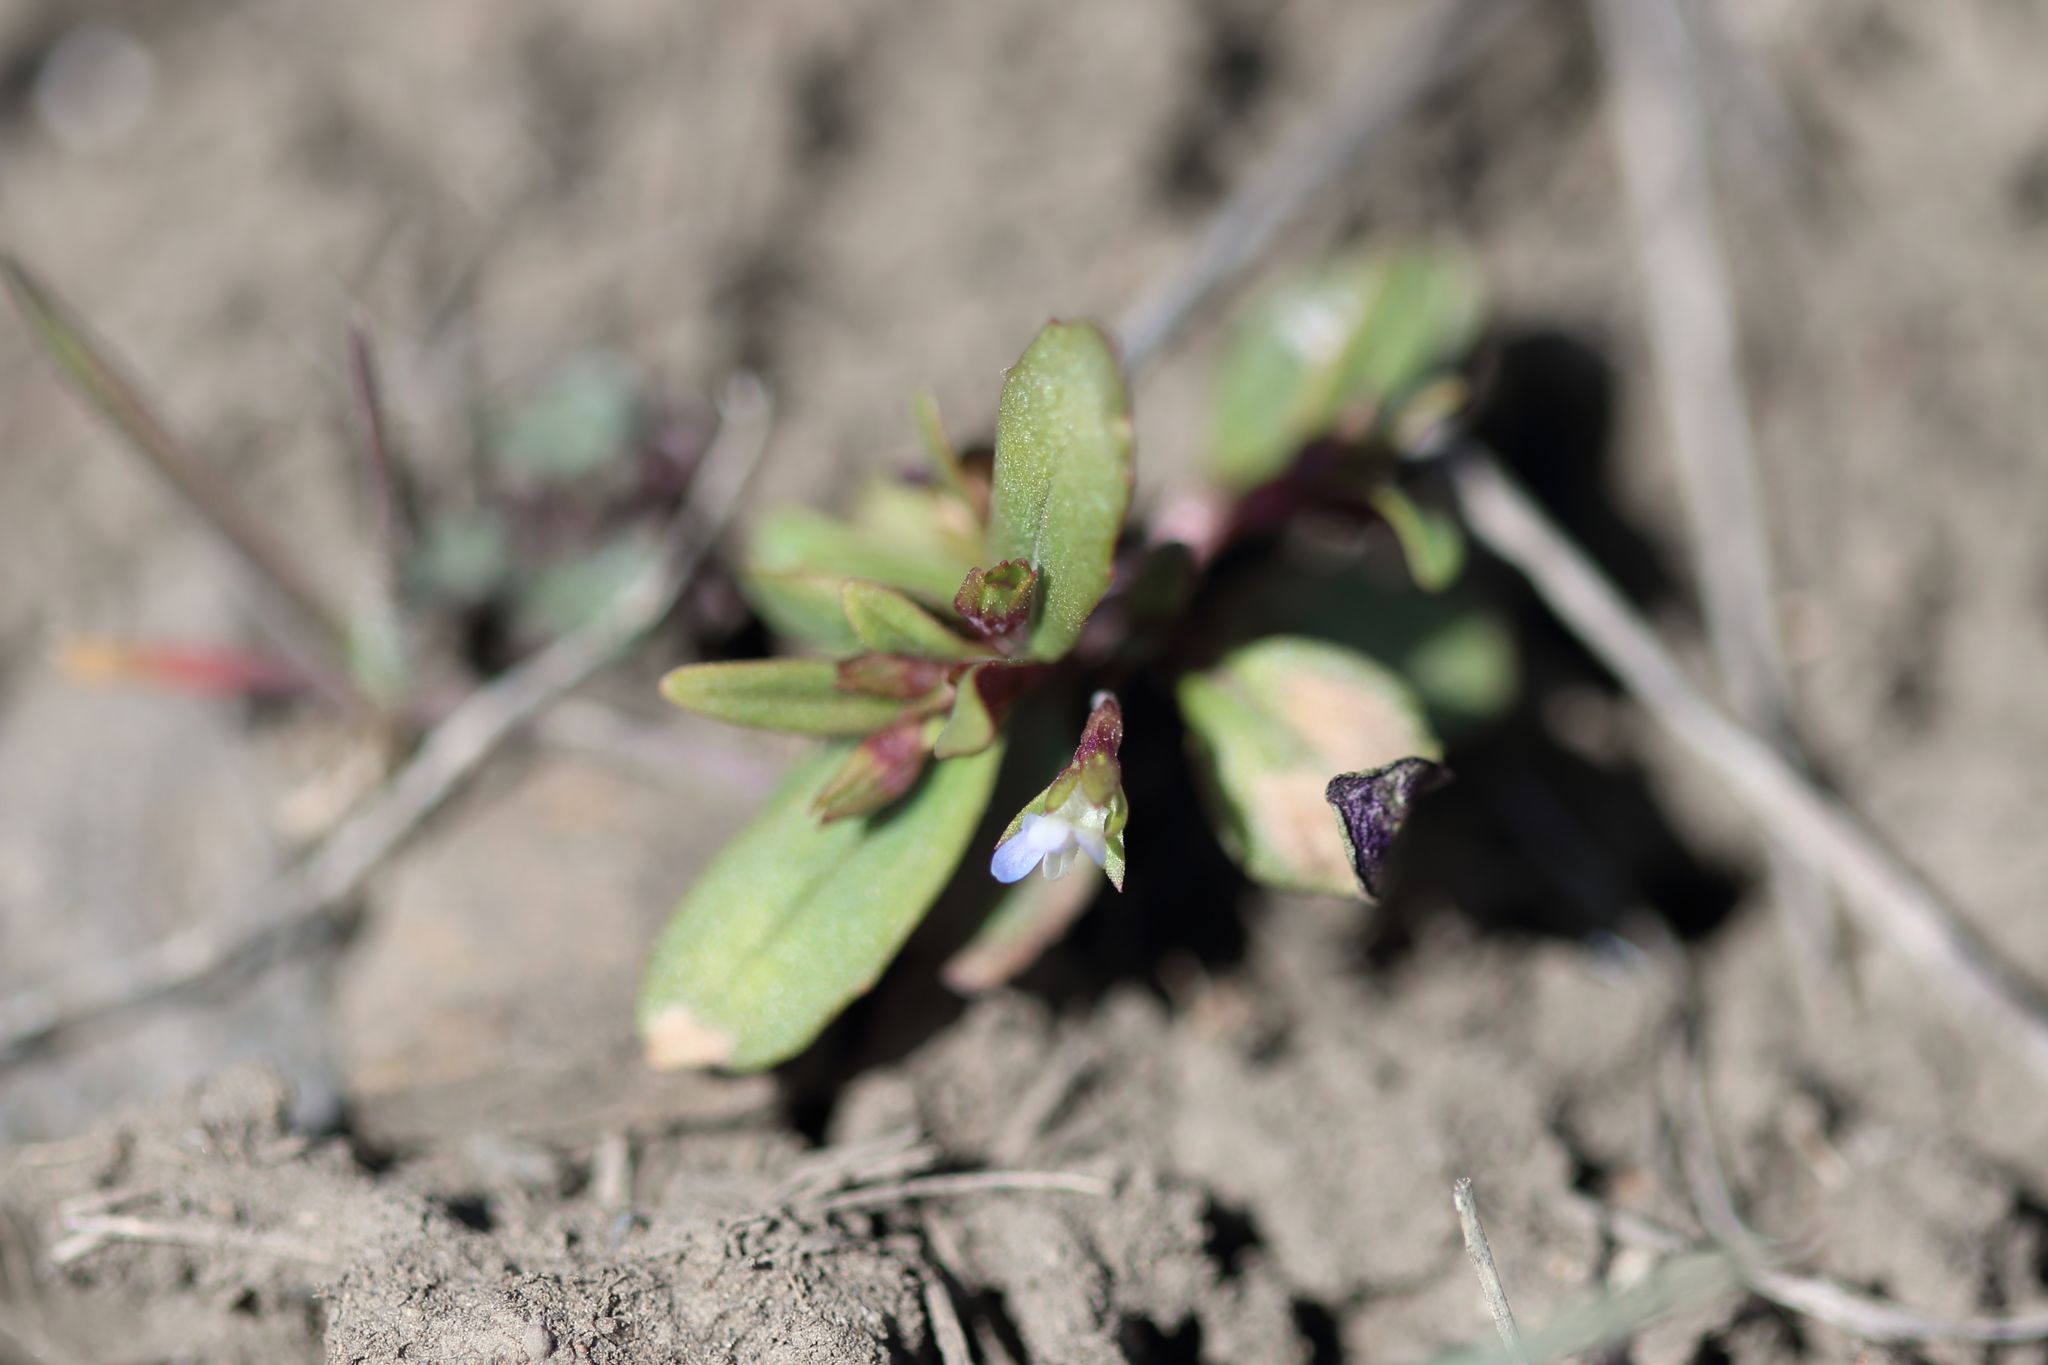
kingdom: Plantae
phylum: Tracheophyta
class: Magnoliopsida
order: Lamiales
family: Plantaginaceae
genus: Collinsia
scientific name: Collinsia parviflora
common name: Blue-lips
